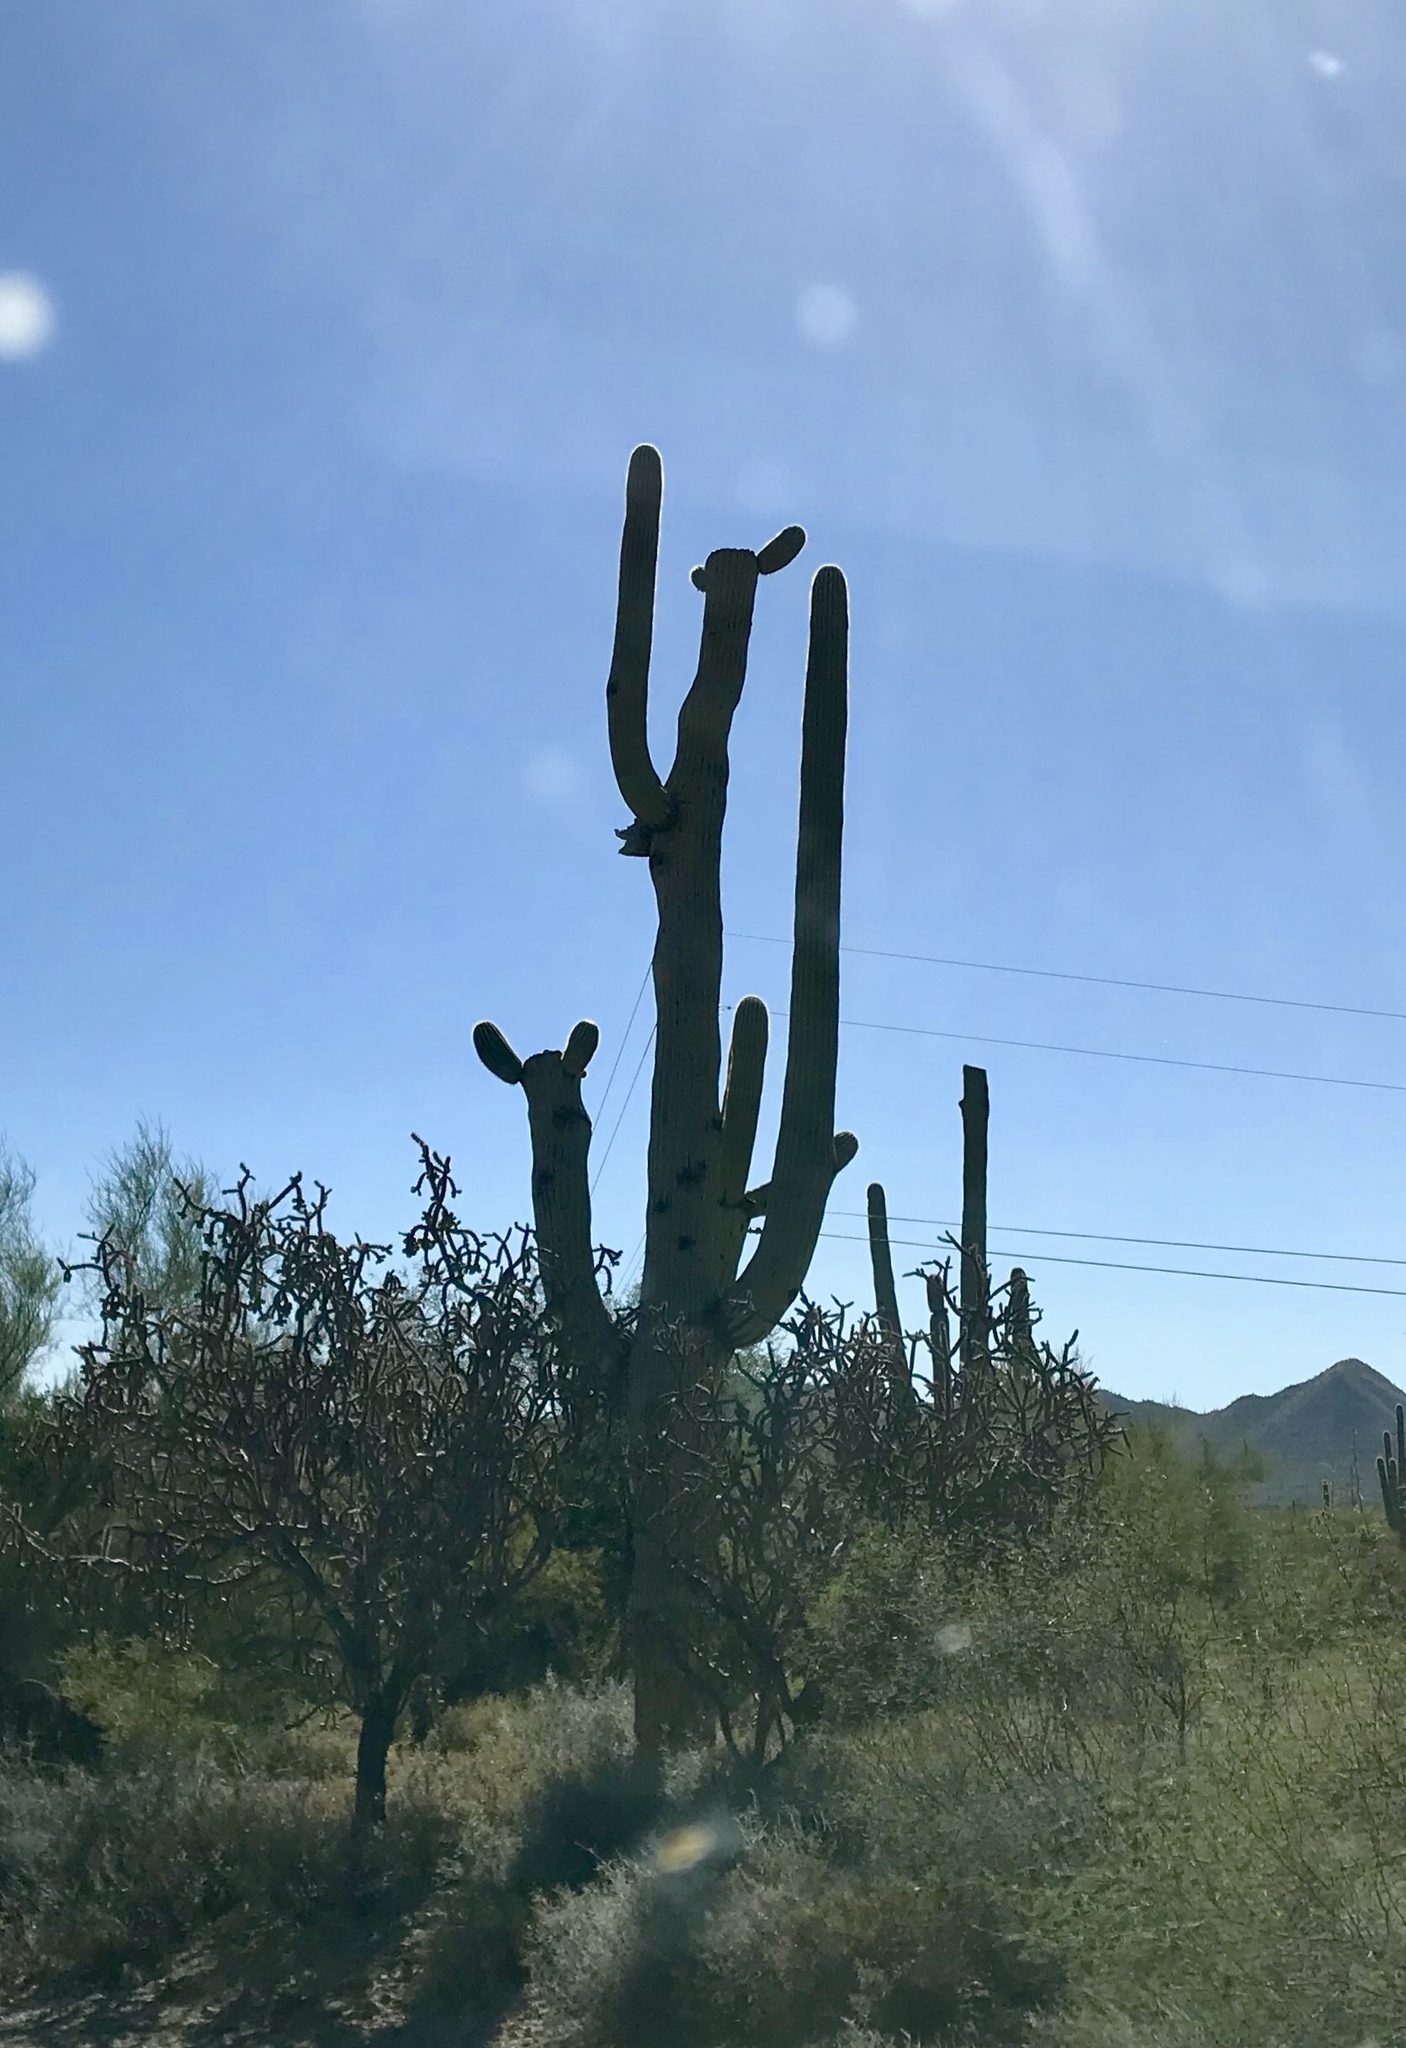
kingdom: Plantae
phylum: Tracheophyta
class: Magnoliopsida
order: Caryophyllales
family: Cactaceae
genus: Carnegiea
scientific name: Carnegiea gigantea
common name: Saguaro
